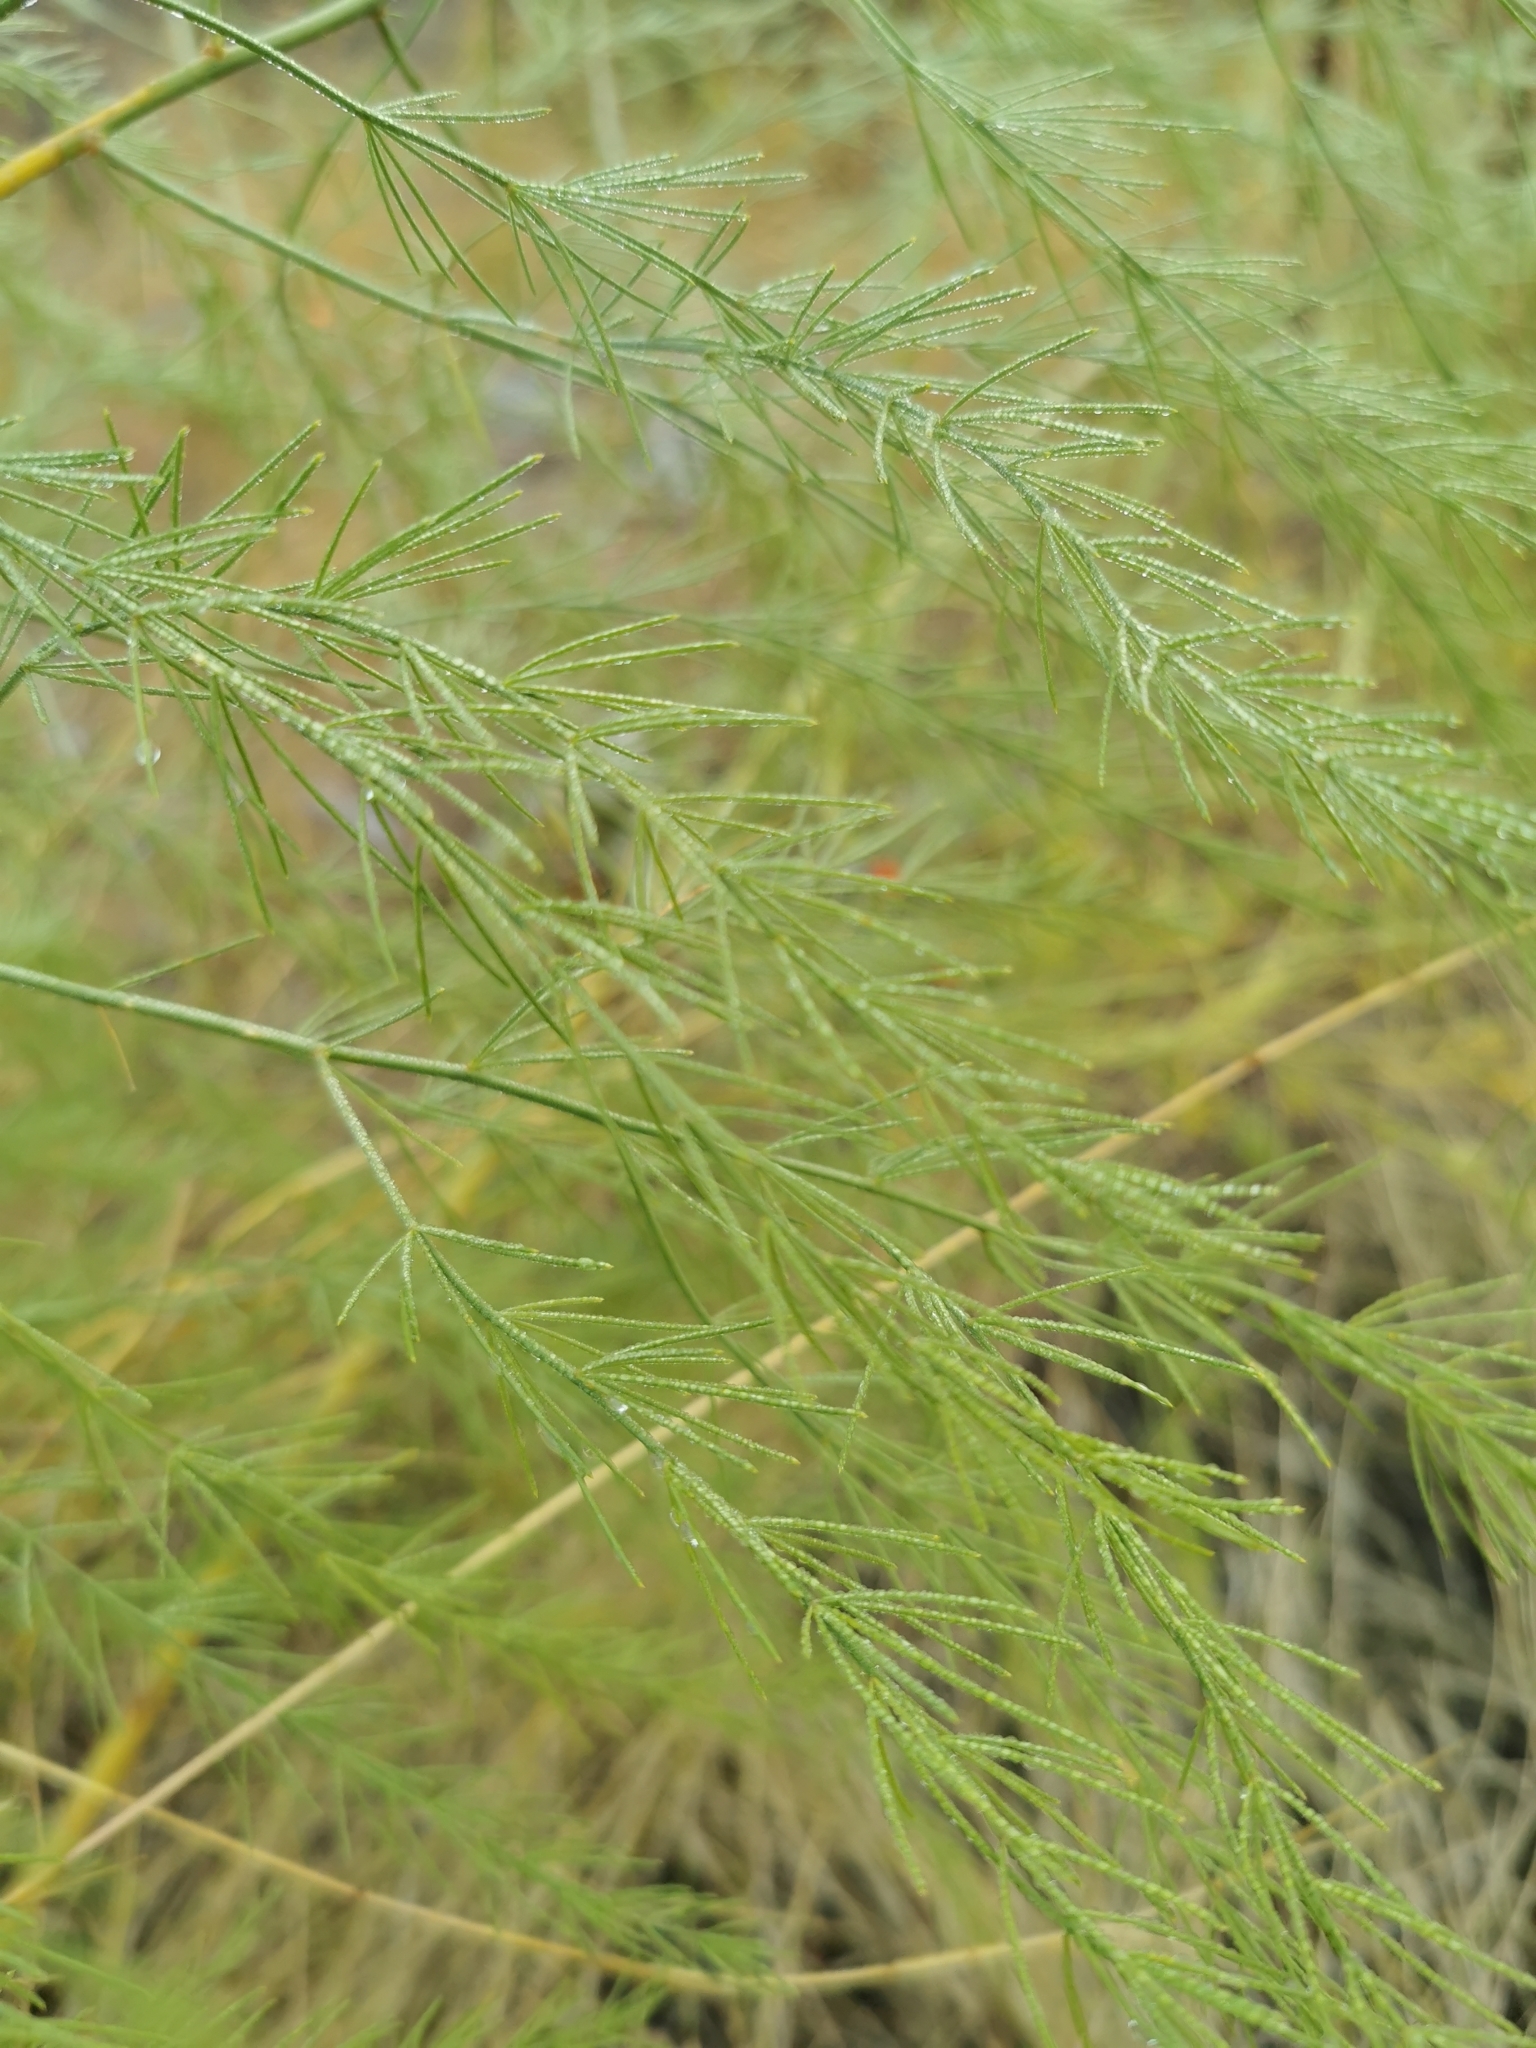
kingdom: Plantae
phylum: Tracheophyta
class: Liliopsida
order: Asparagales
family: Asparagaceae
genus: Asparagus
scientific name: Asparagus officinalis
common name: Garden asparagus
